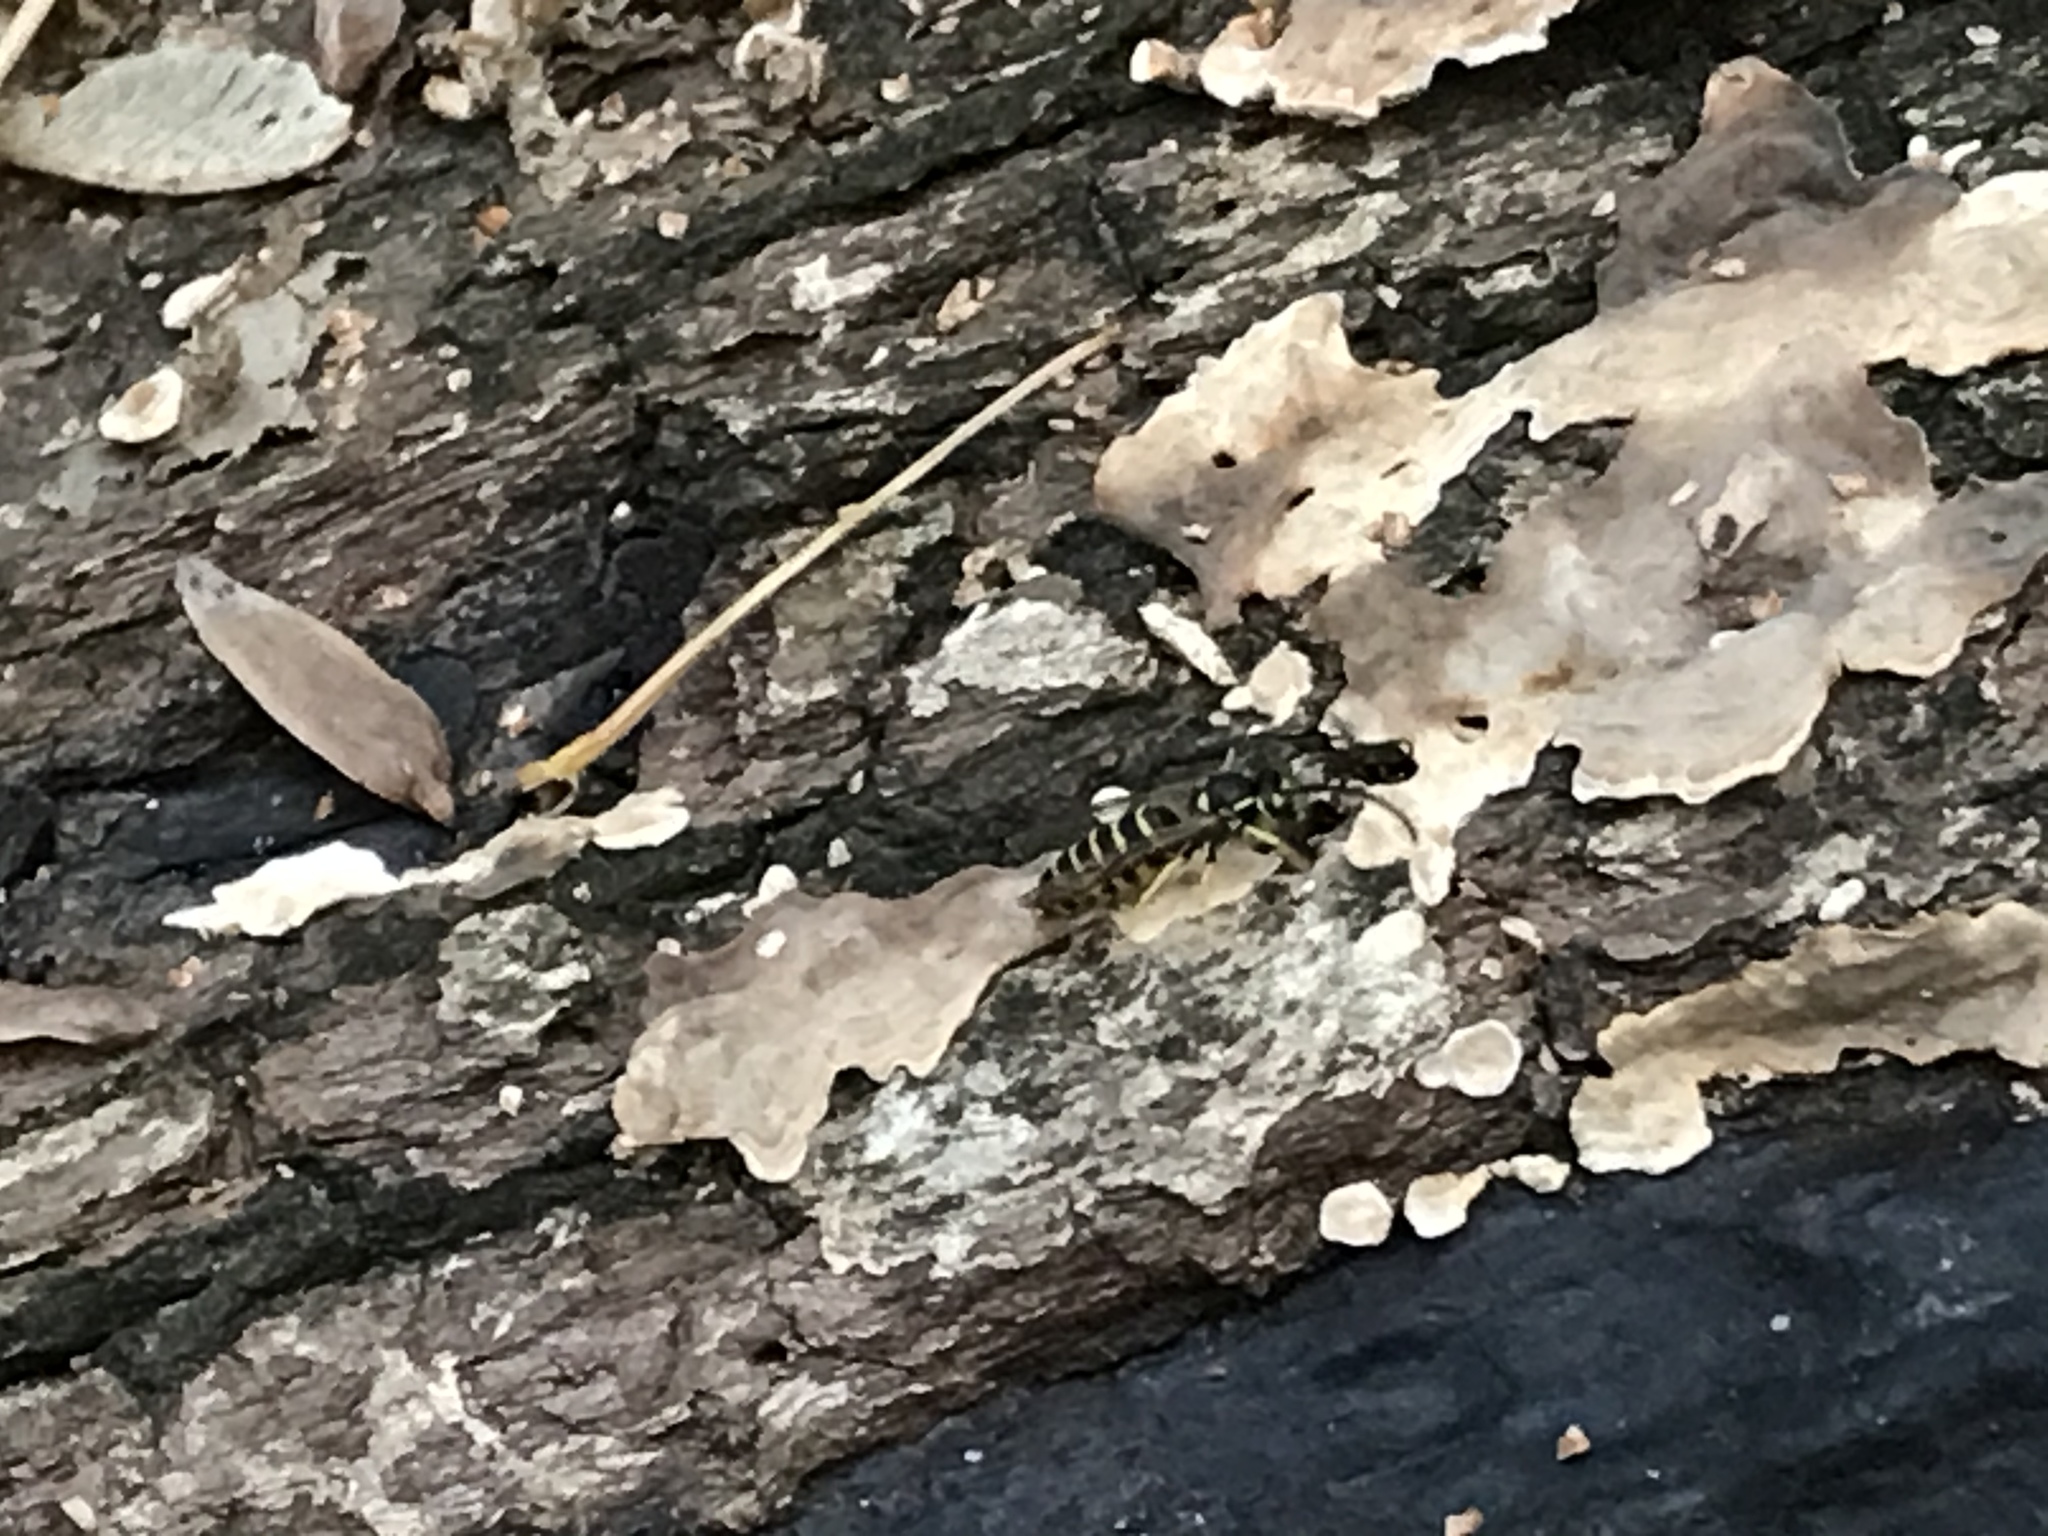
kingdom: Animalia
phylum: Arthropoda
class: Insecta
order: Hymenoptera
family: Vespidae
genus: Vespula
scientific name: Vespula maculifrons
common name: Eastern yellowjacket
